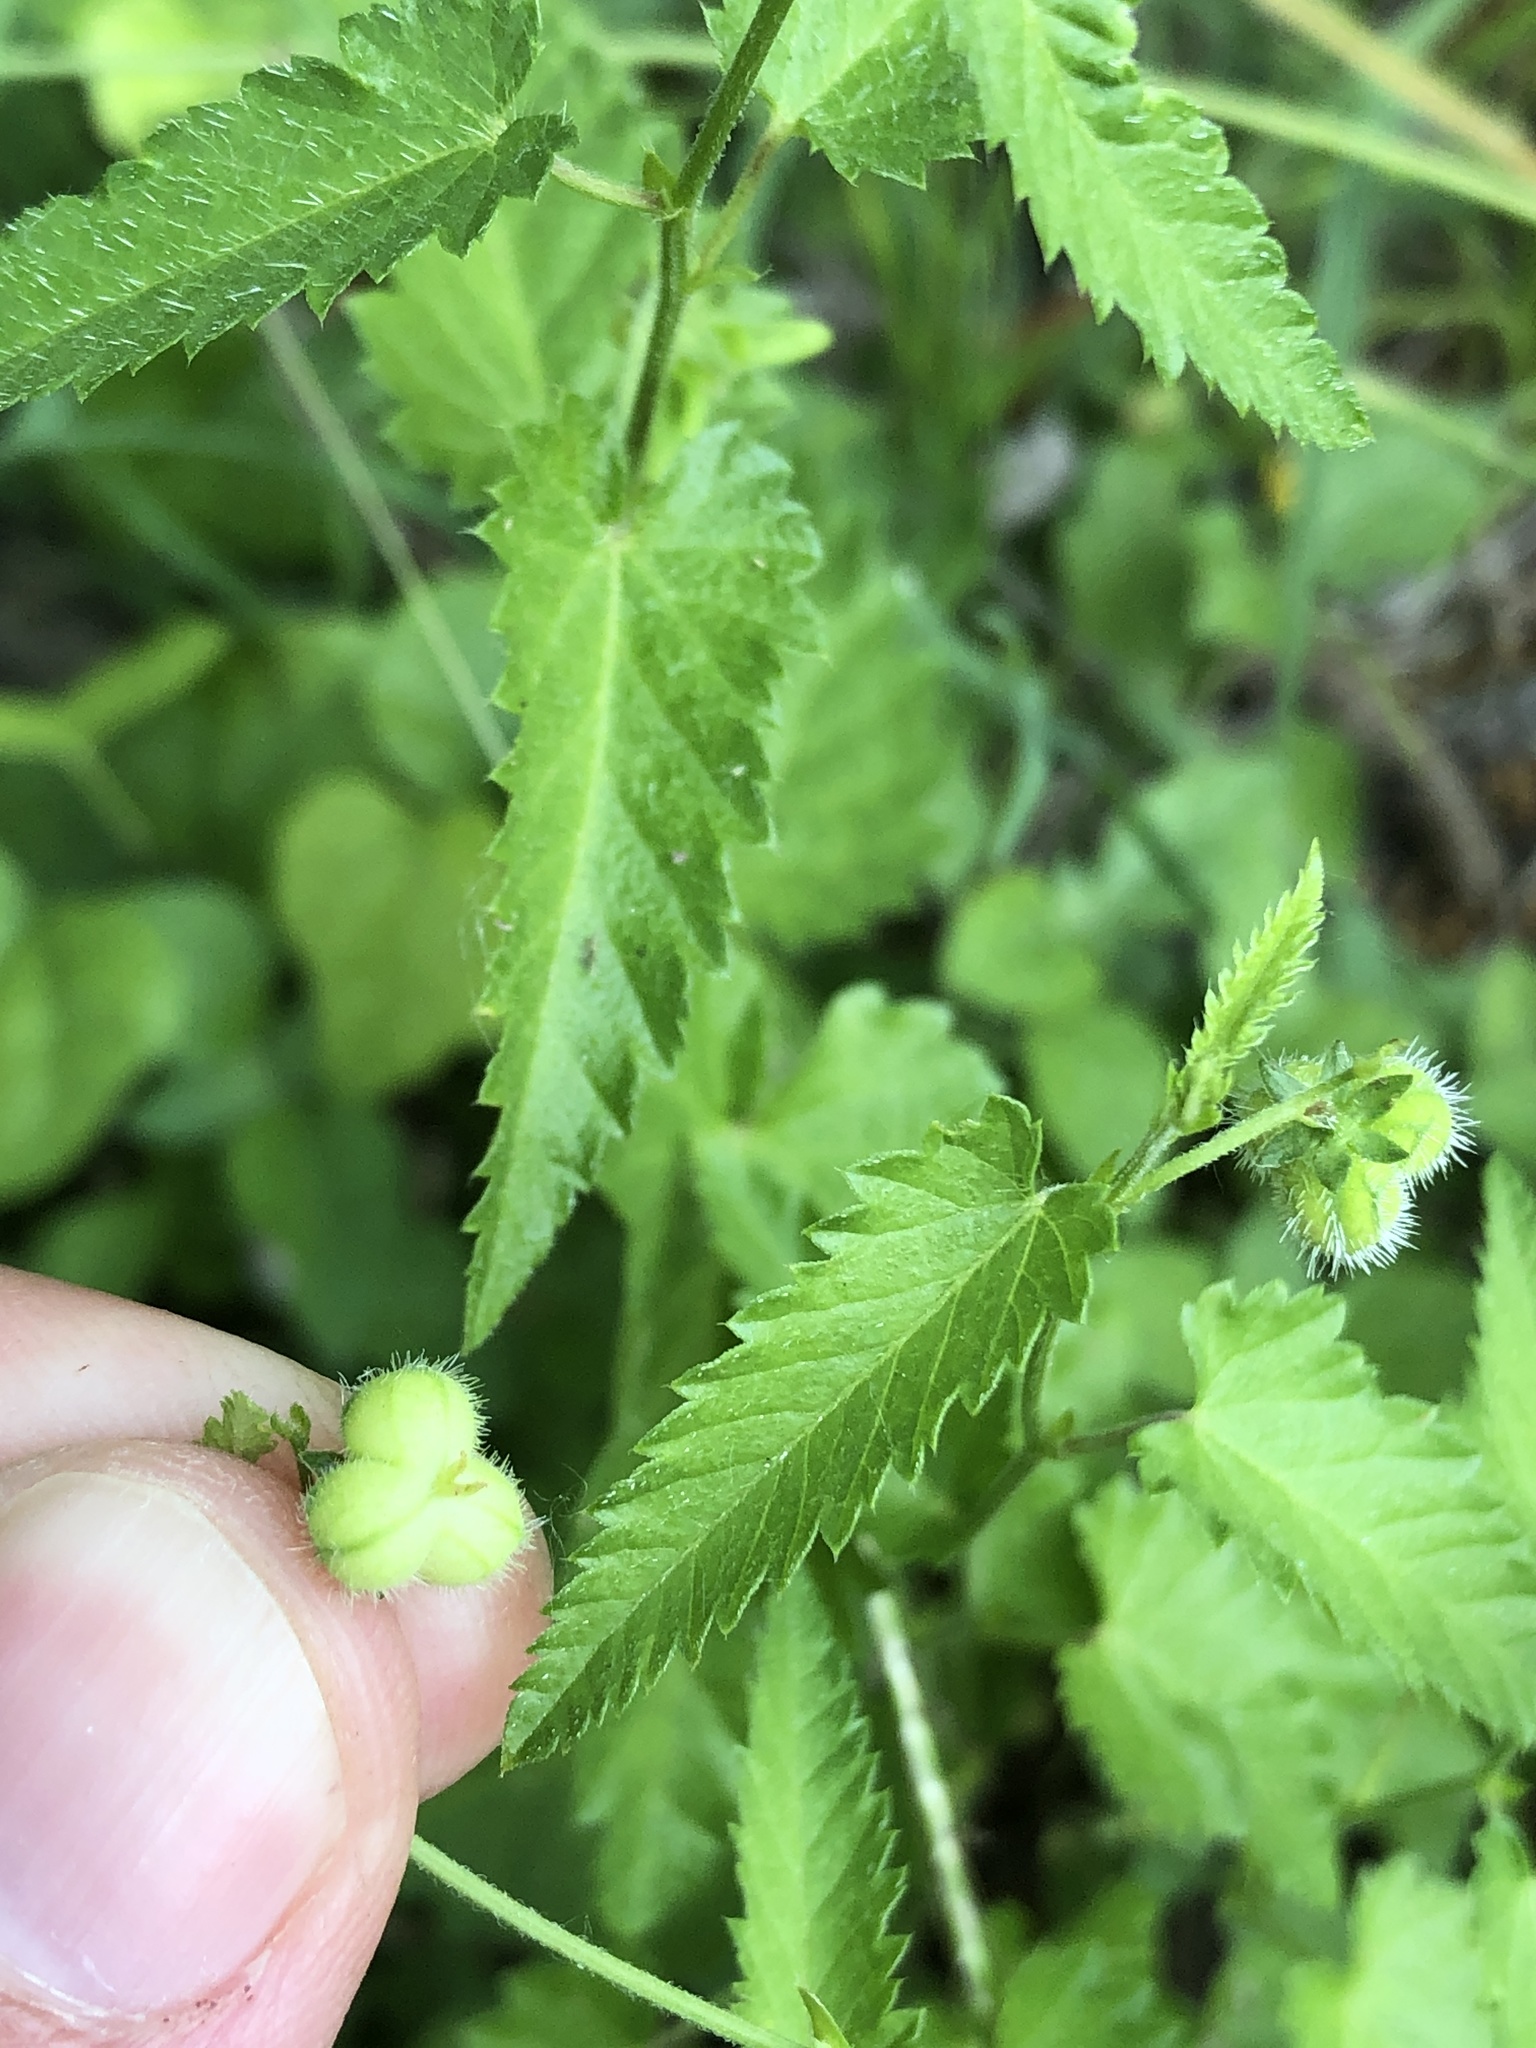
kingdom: Plantae
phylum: Tracheophyta
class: Magnoliopsida
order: Malpighiales
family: Euphorbiaceae
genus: Tragia
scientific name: Tragia urticifolia
